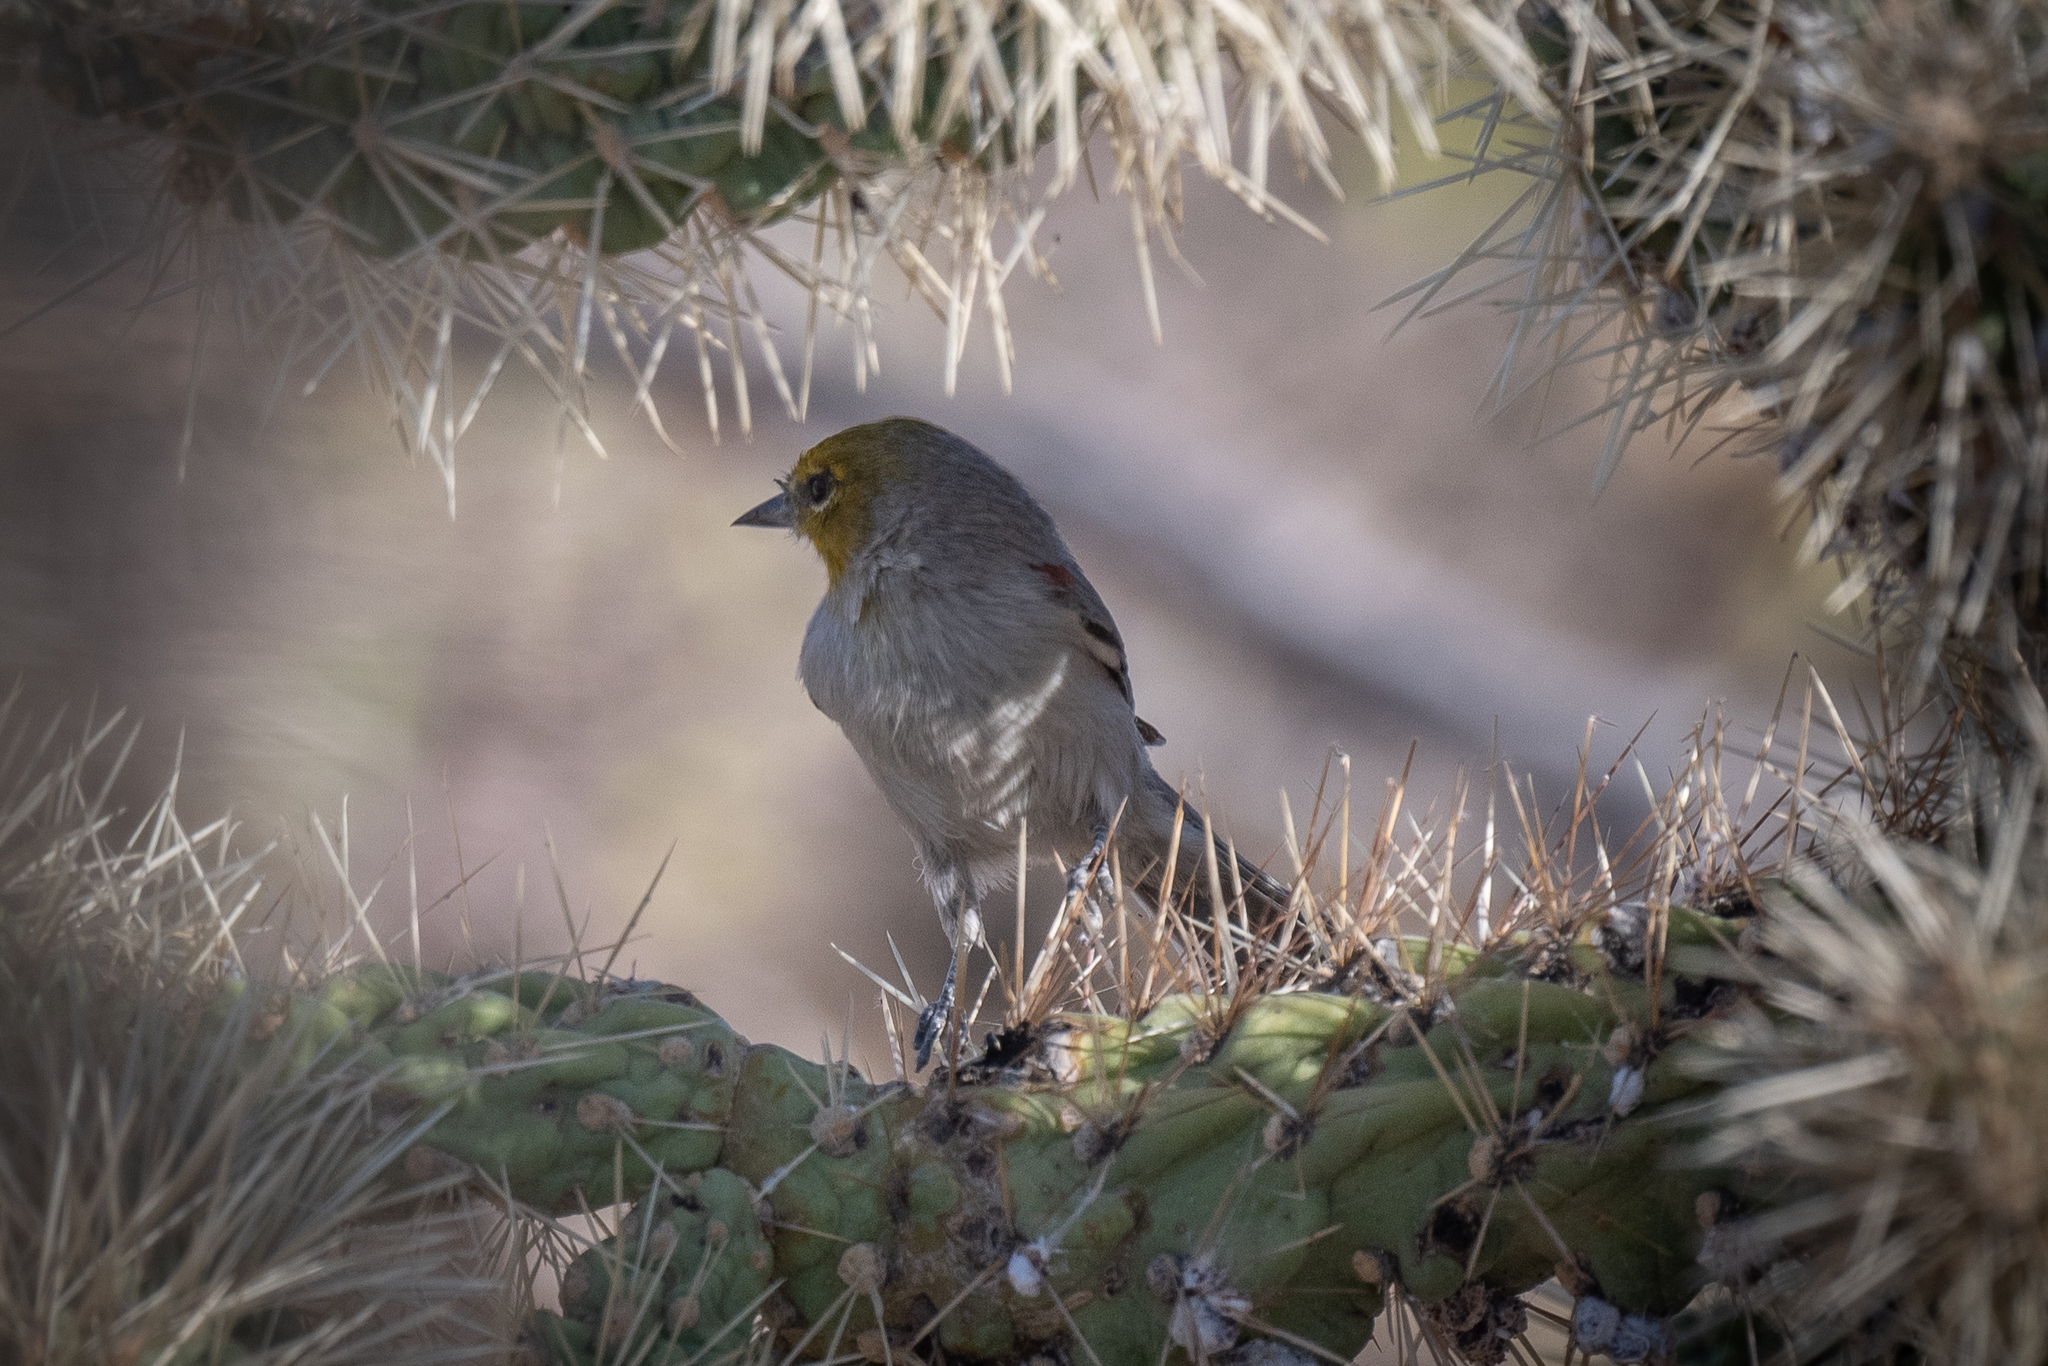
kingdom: Animalia
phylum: Chordata
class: Aves
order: Passeriformes
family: Remizidae
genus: Auriparus
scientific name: Auriparus flaviceps
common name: Verdin
